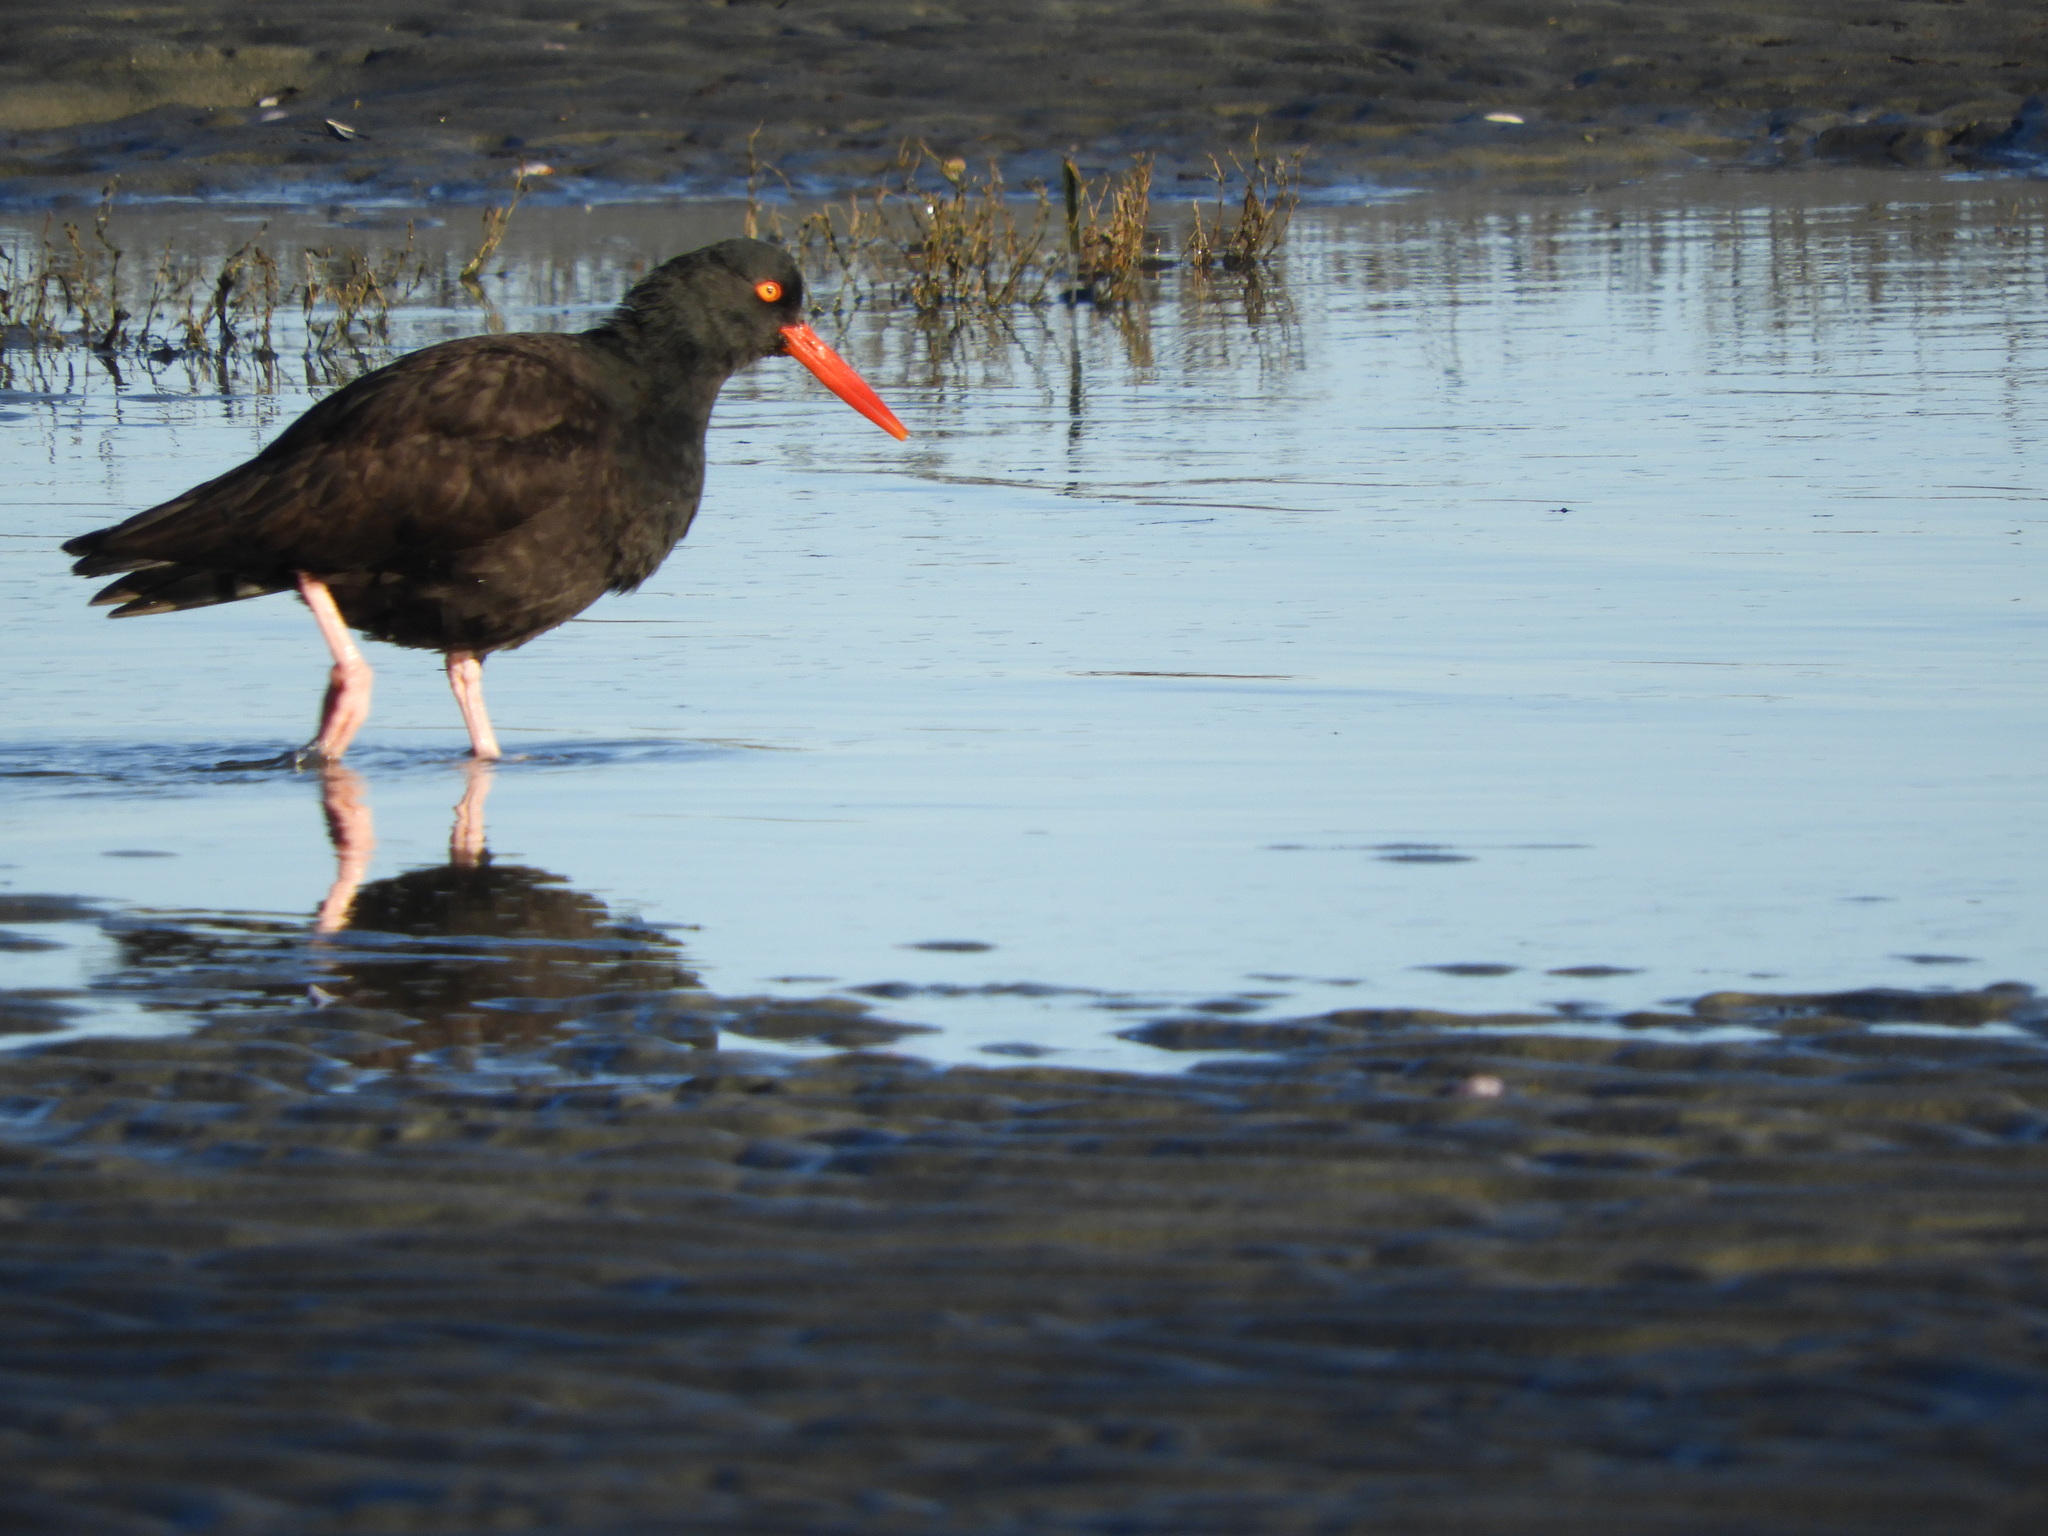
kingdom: Animalia
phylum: Chordata
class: Aves
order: Charadriiformes
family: Haematopodidae
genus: Haematopus
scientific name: Haematopus bachmani
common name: Black oystercatcher
